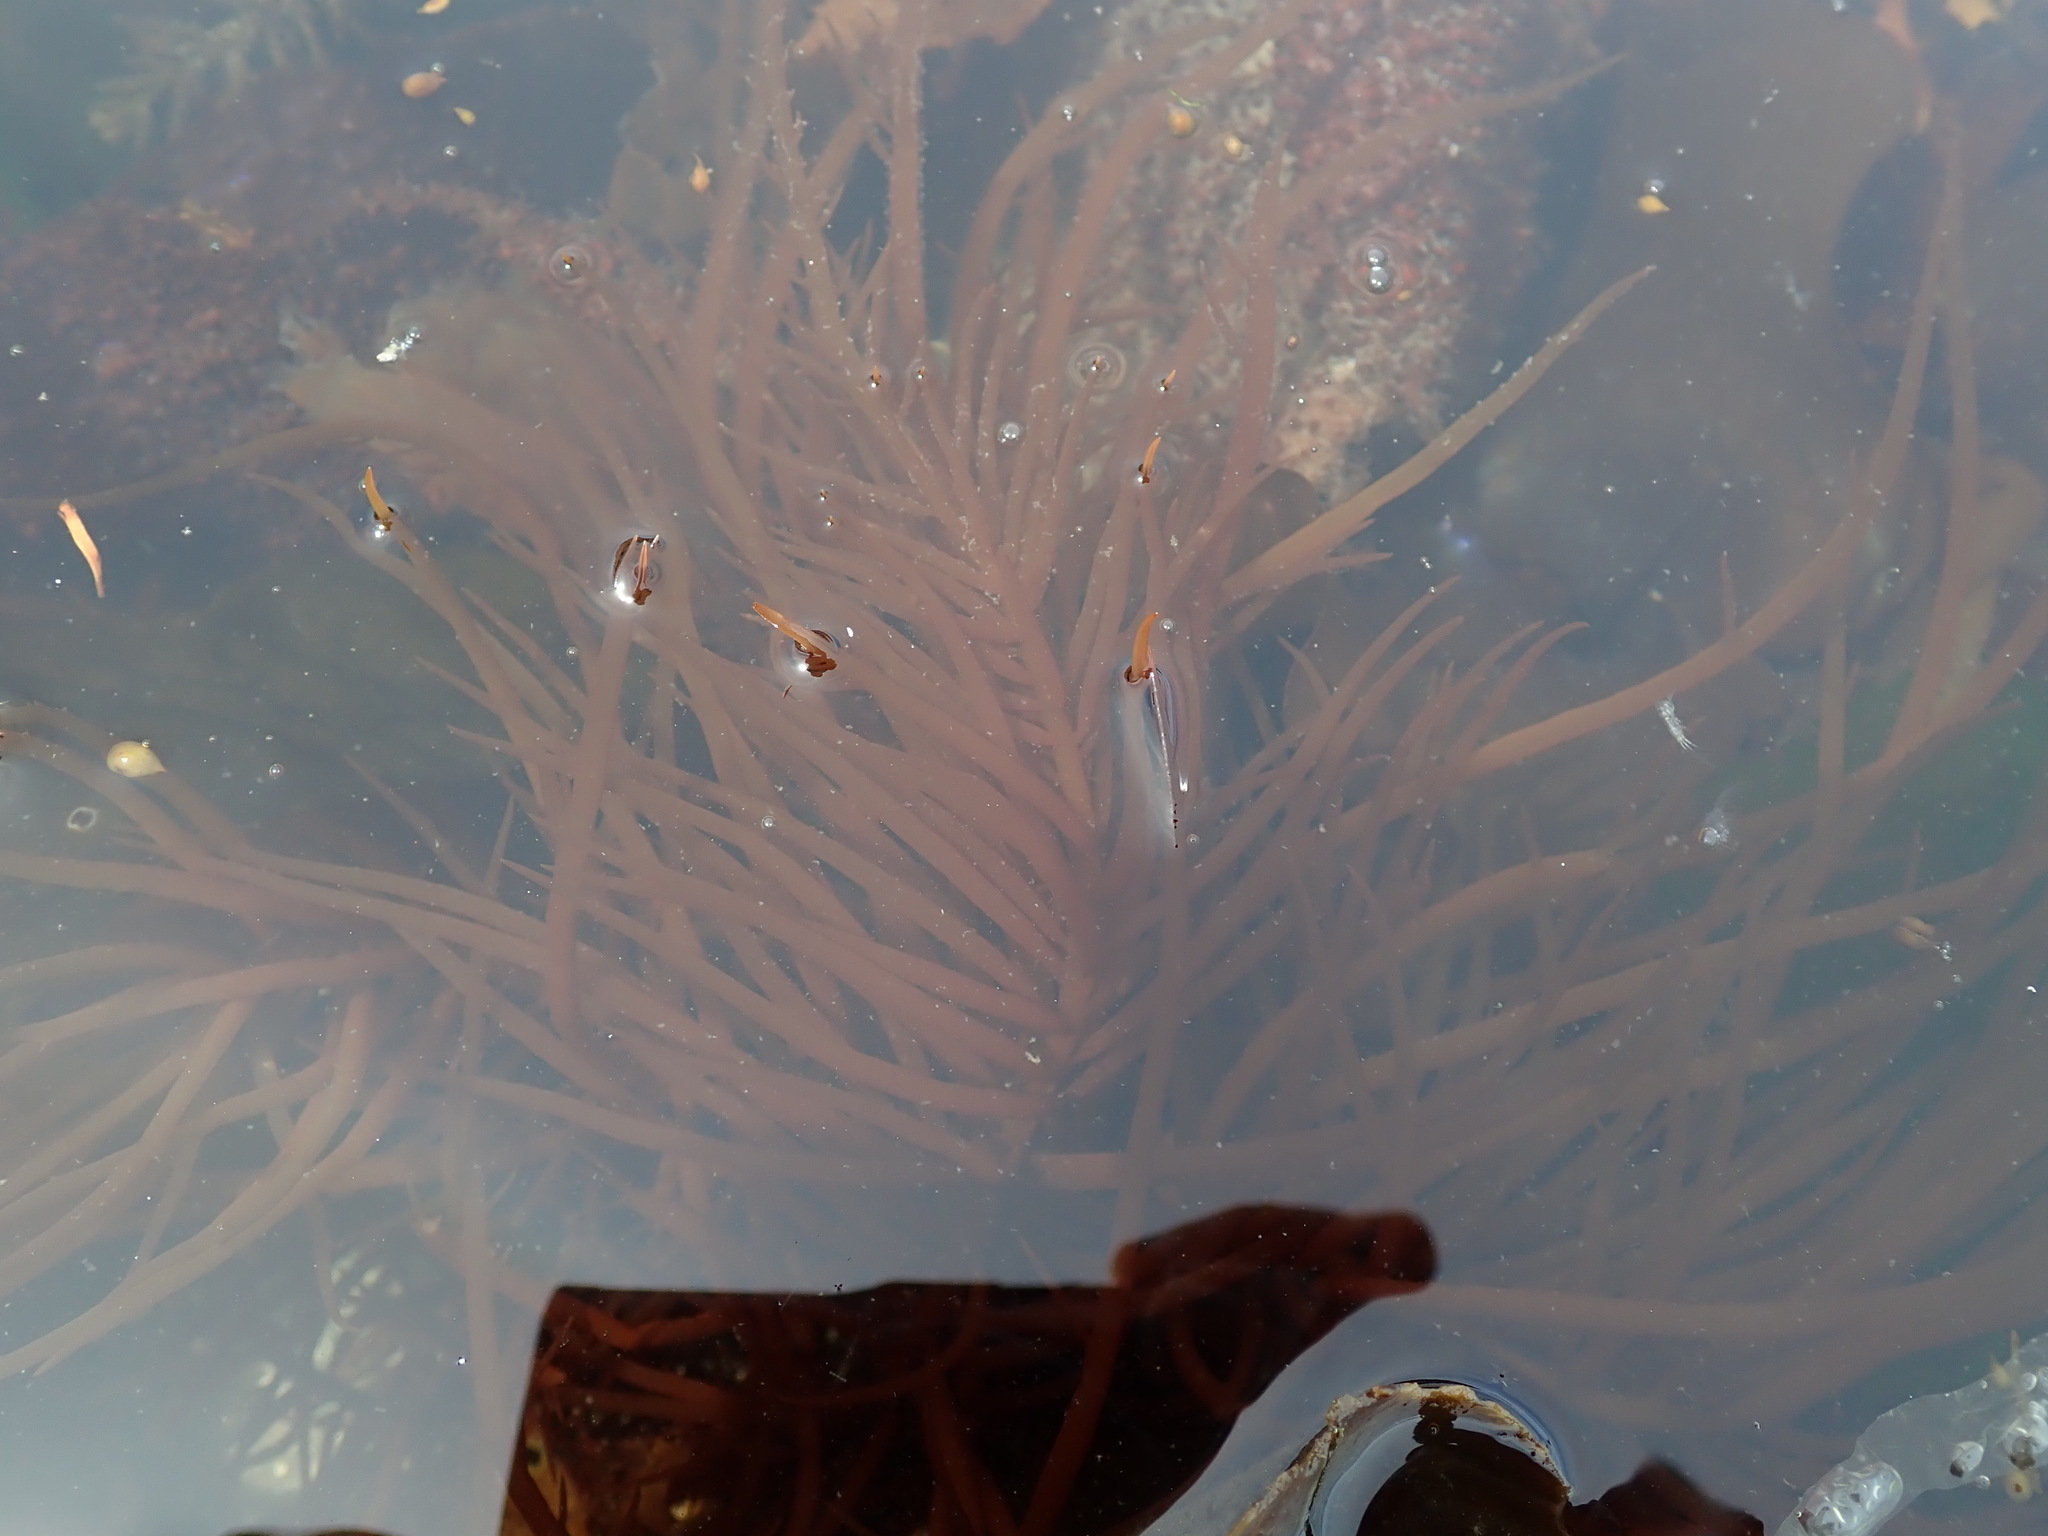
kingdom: Plantae
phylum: Rhodophyta
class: Florideophyceae
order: Gigartinales
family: Solieriaceae
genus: Sarcodiotheca
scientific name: Sarcodiotheca gaudichaudii
